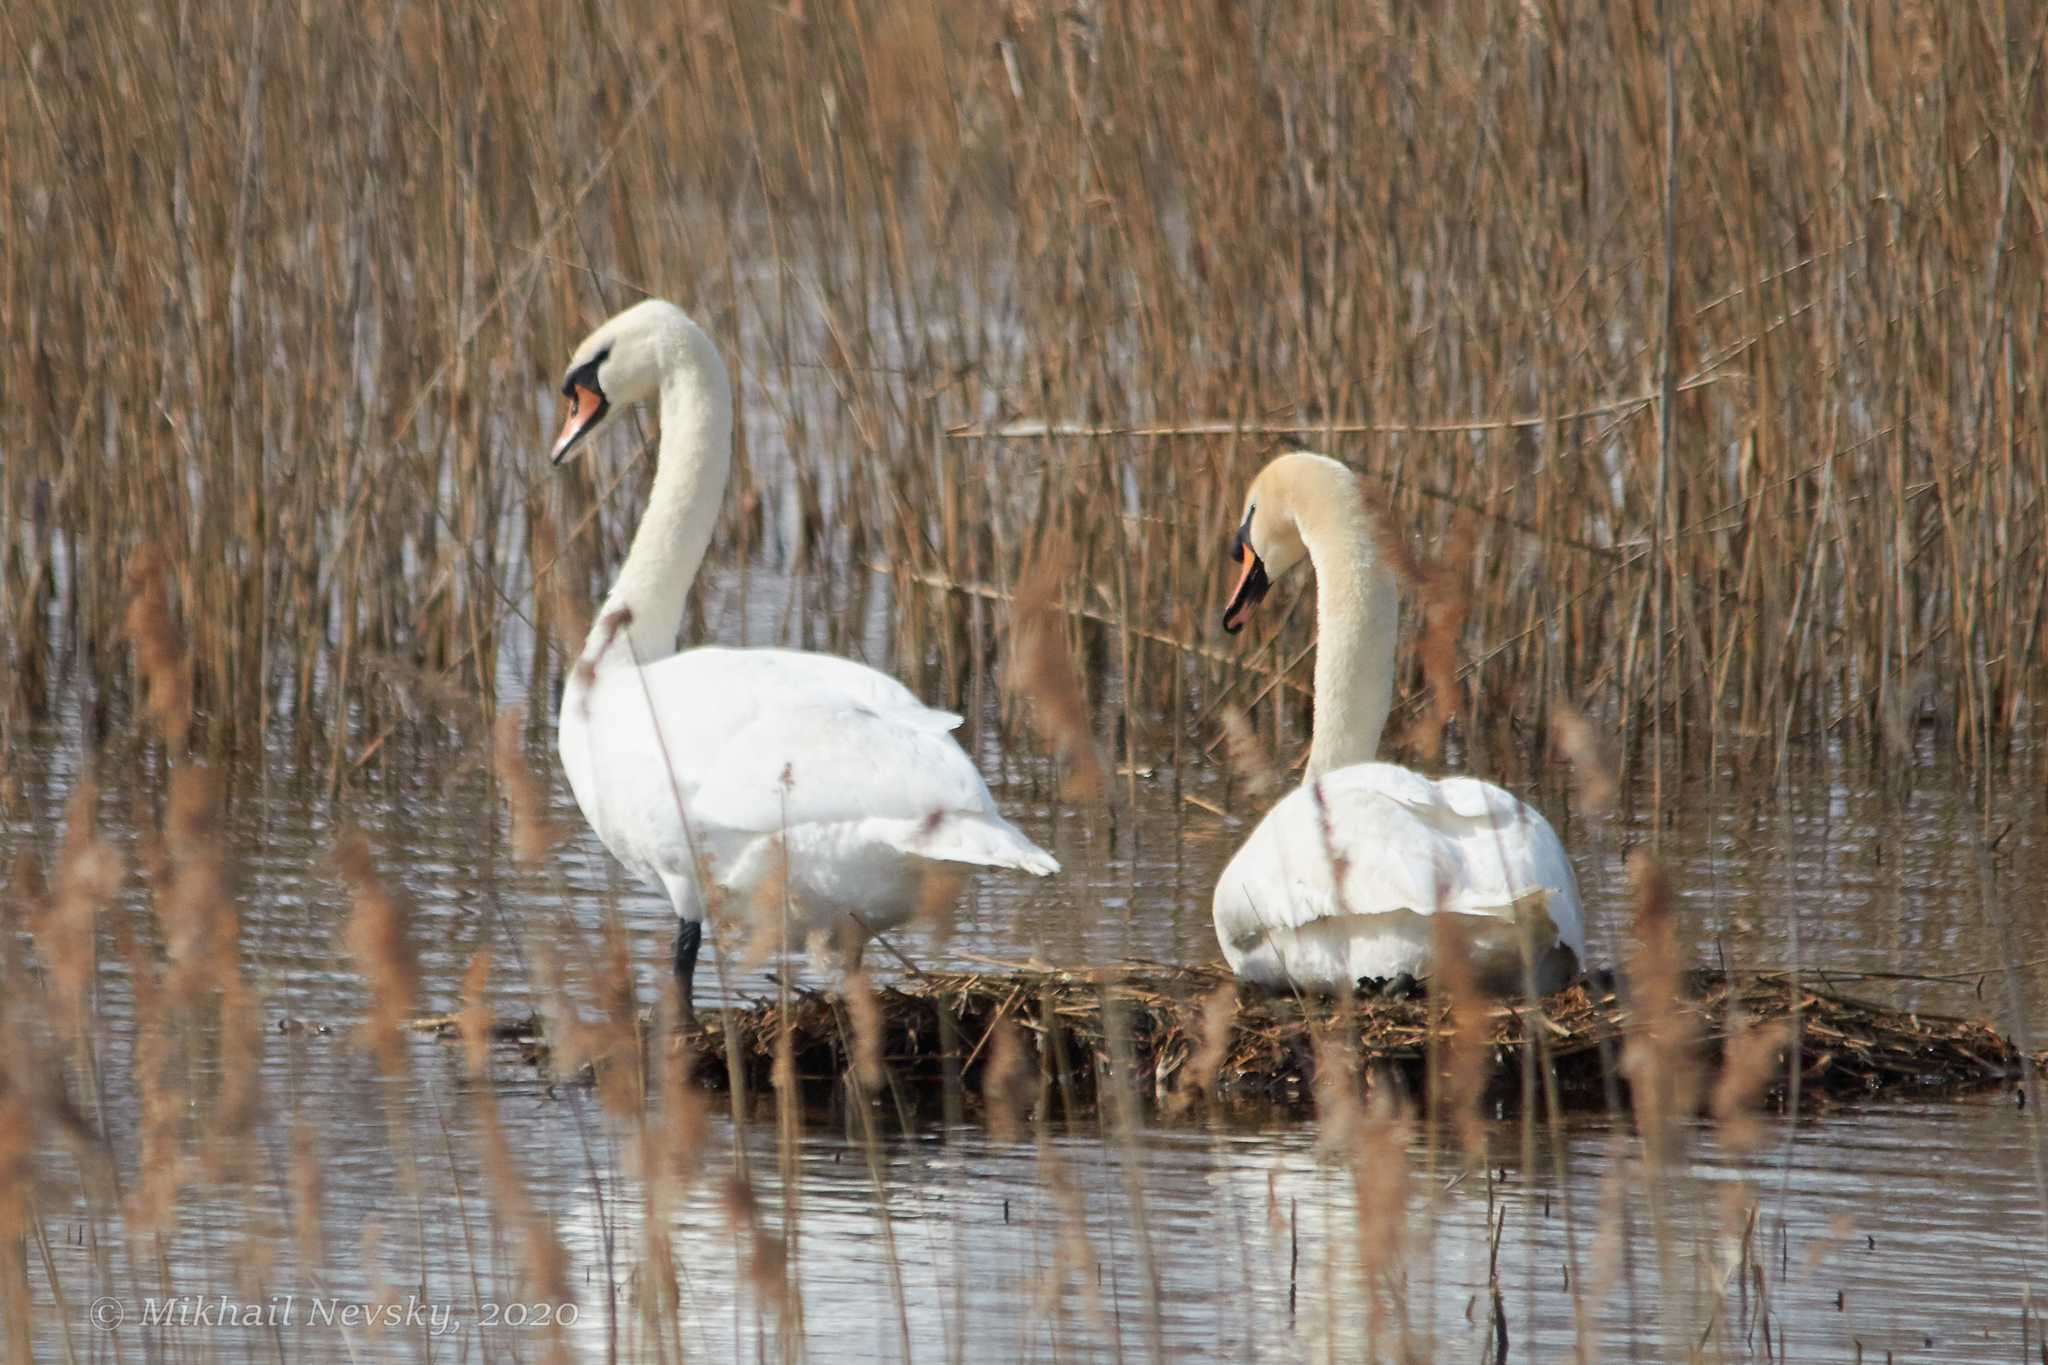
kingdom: Animalia
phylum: Chordata
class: Aves
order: Anseriformes
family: Anatidae
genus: Cygnus
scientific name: Cygnus olor
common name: Mute swan
